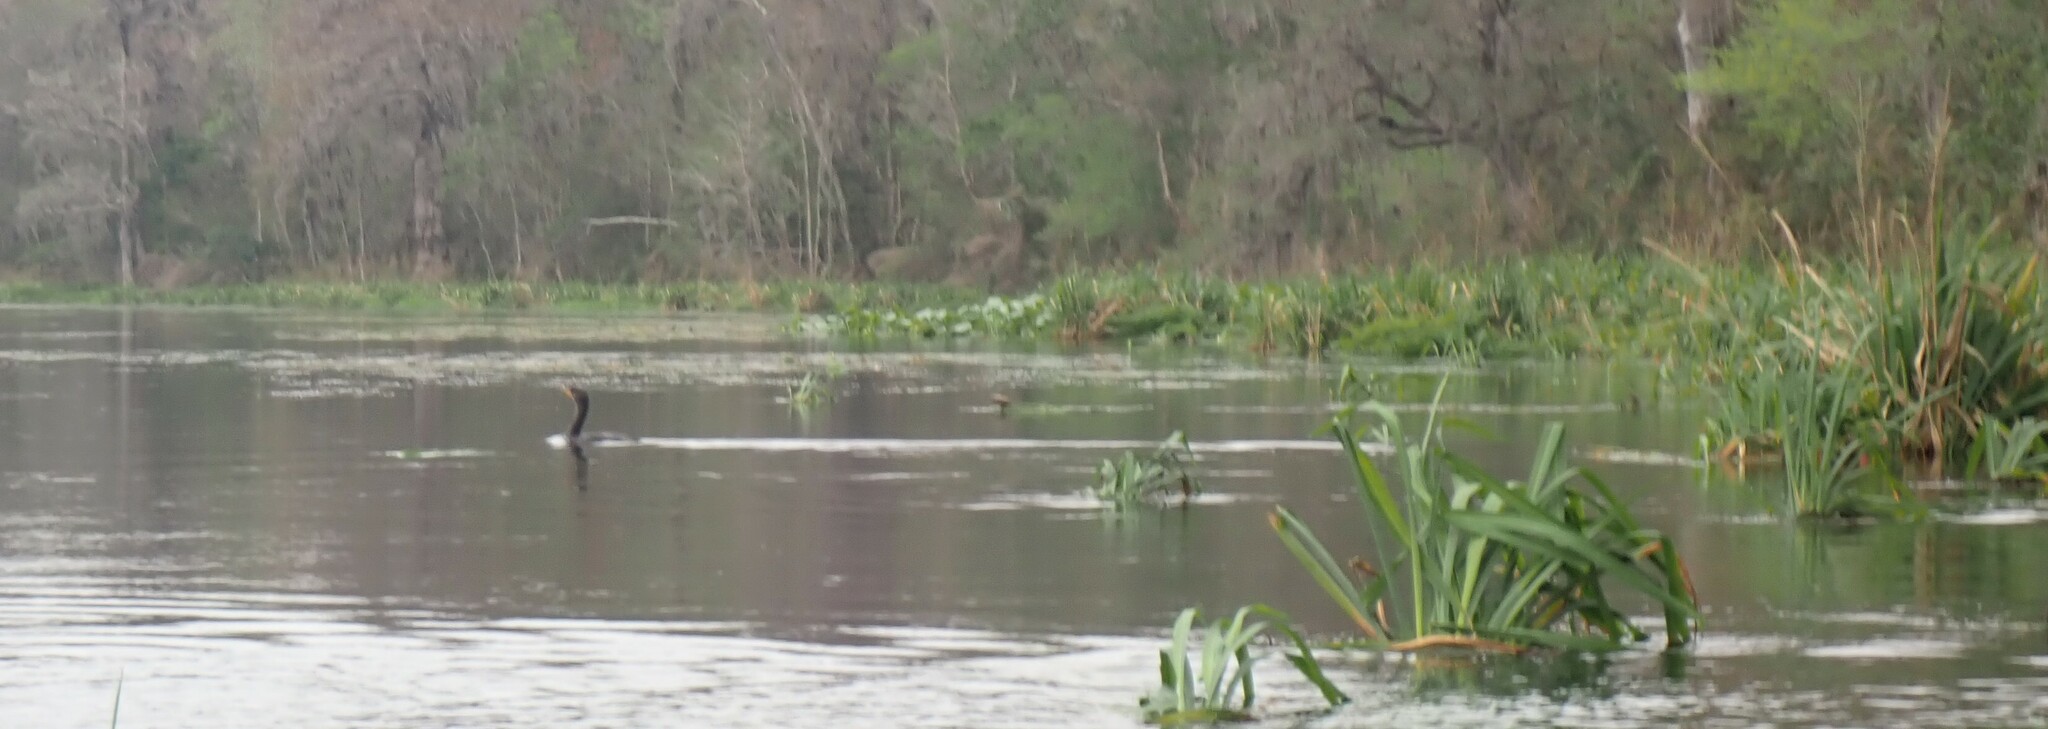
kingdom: Animalia
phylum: Chordata
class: Aves
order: Suliformes
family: Phalacrocoracidae
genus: Phalacrocorax
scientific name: Phalacrocorax auritus
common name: Double-crested cormorant
